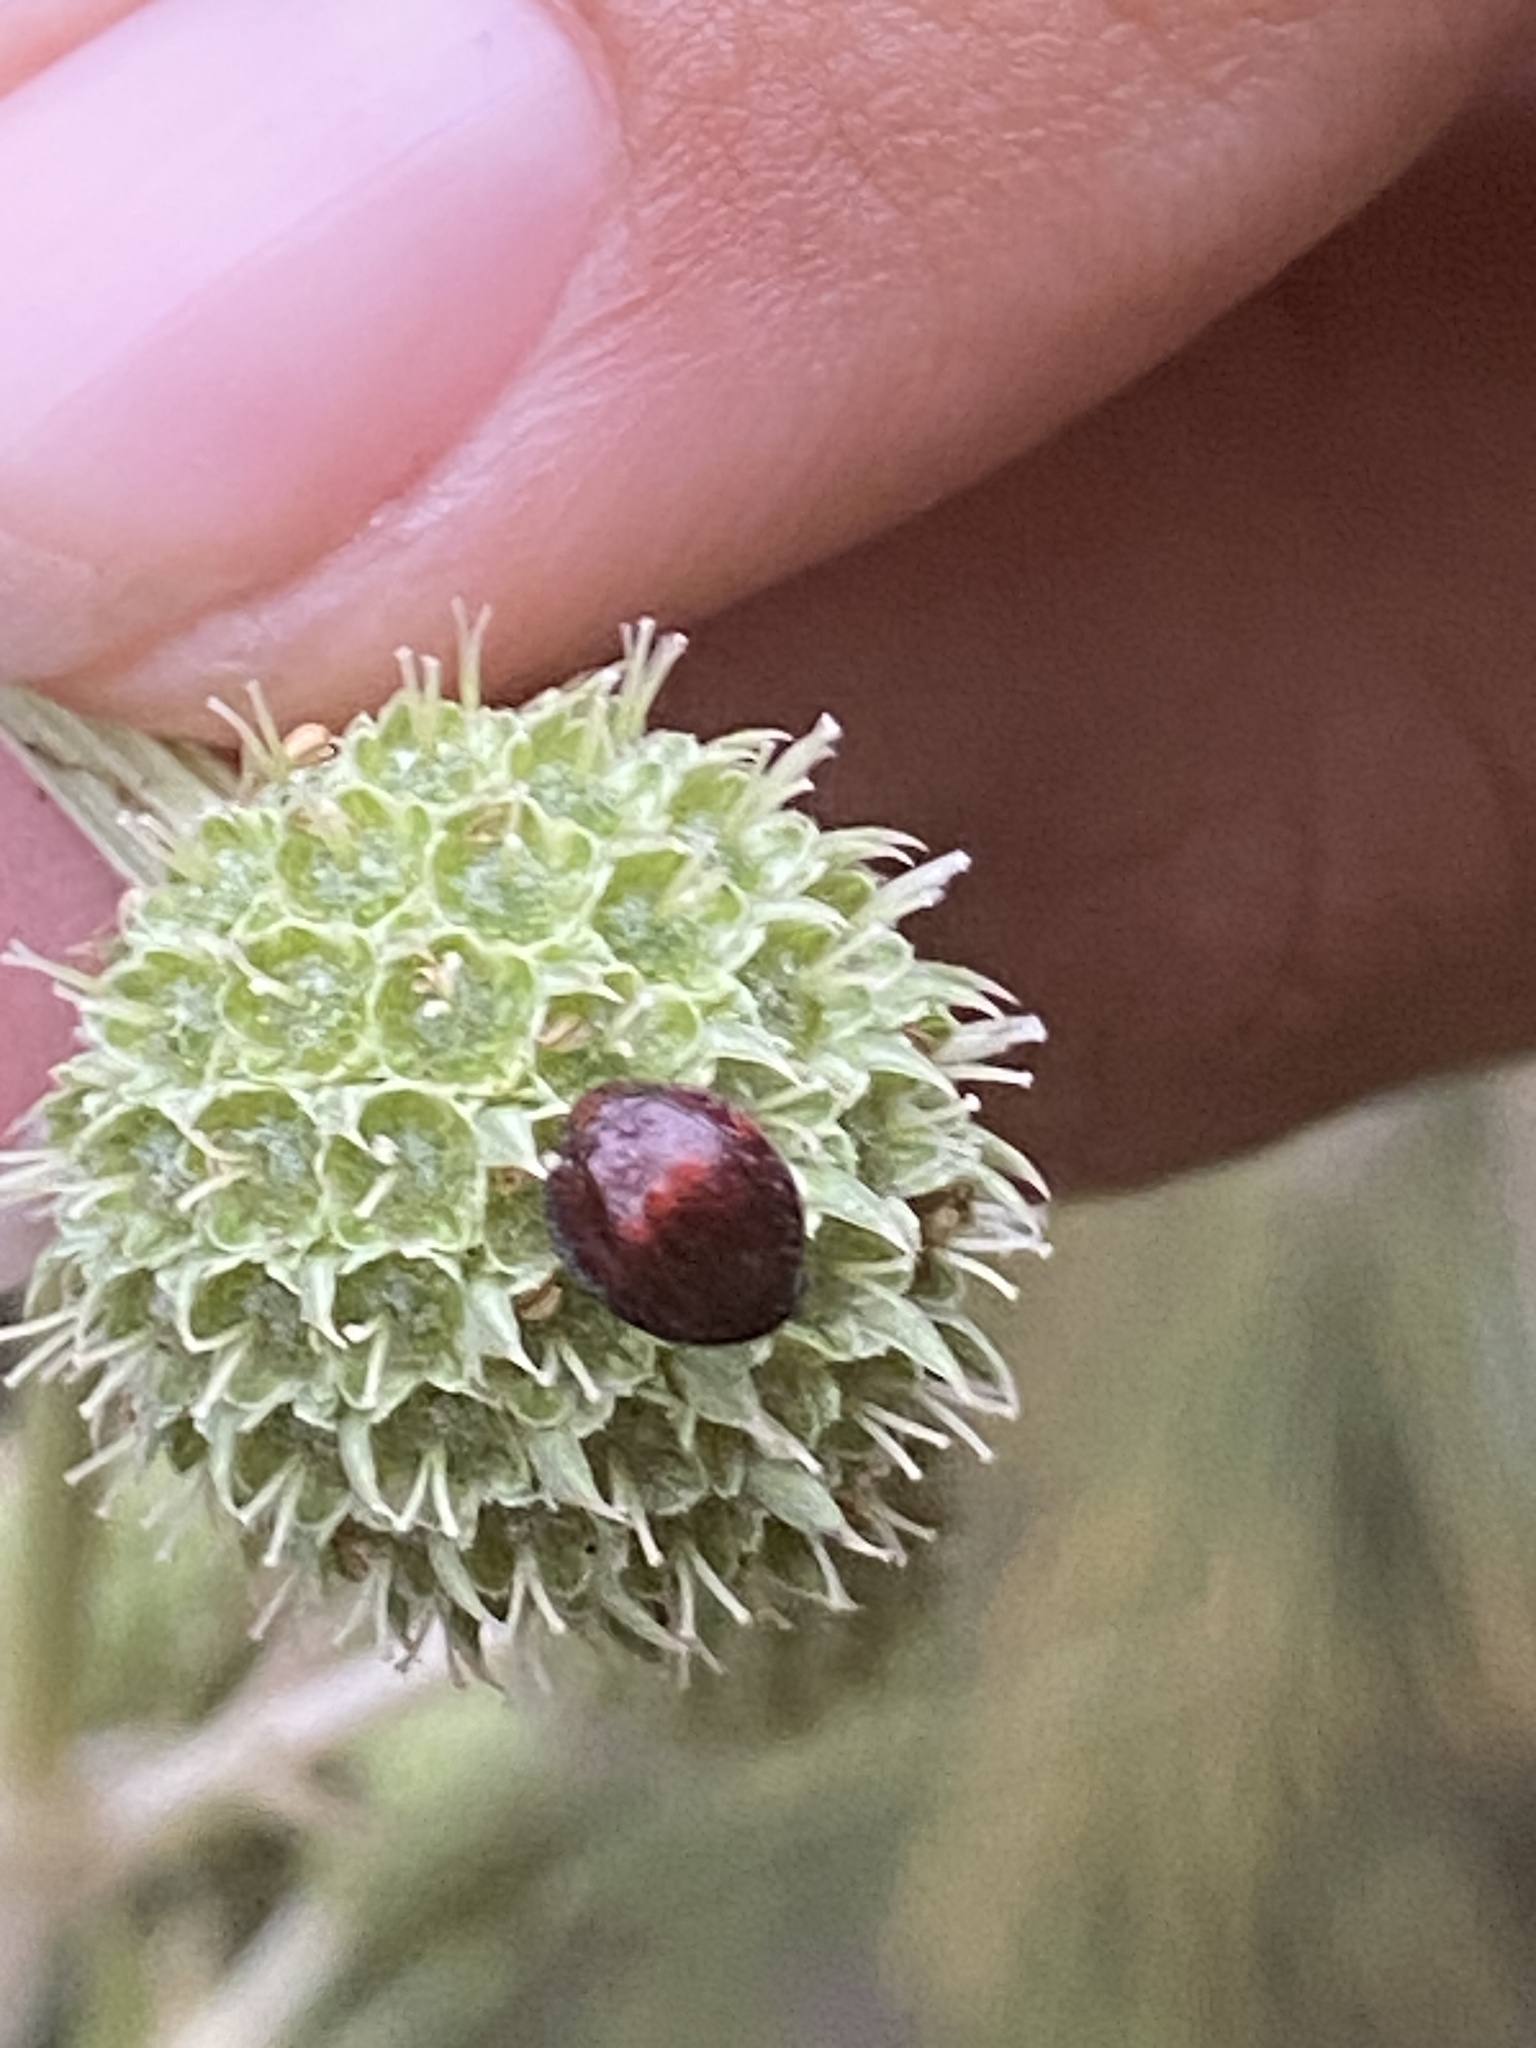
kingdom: Animalia
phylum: Arthropoda
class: Insecta
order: Coleoptera
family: Coccinellidae
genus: Chilocorus
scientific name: Chilocorus bipustulatus
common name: Heather ladybird
